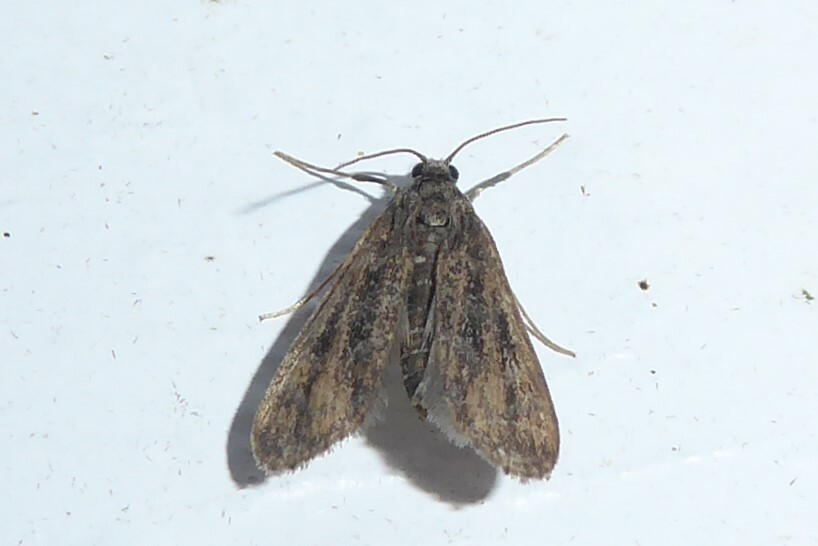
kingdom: Animalia
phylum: Arthropoda
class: Insecta
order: Lepidoptera
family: Crambidae
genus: Hygraula
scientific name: Hygraula nitens
